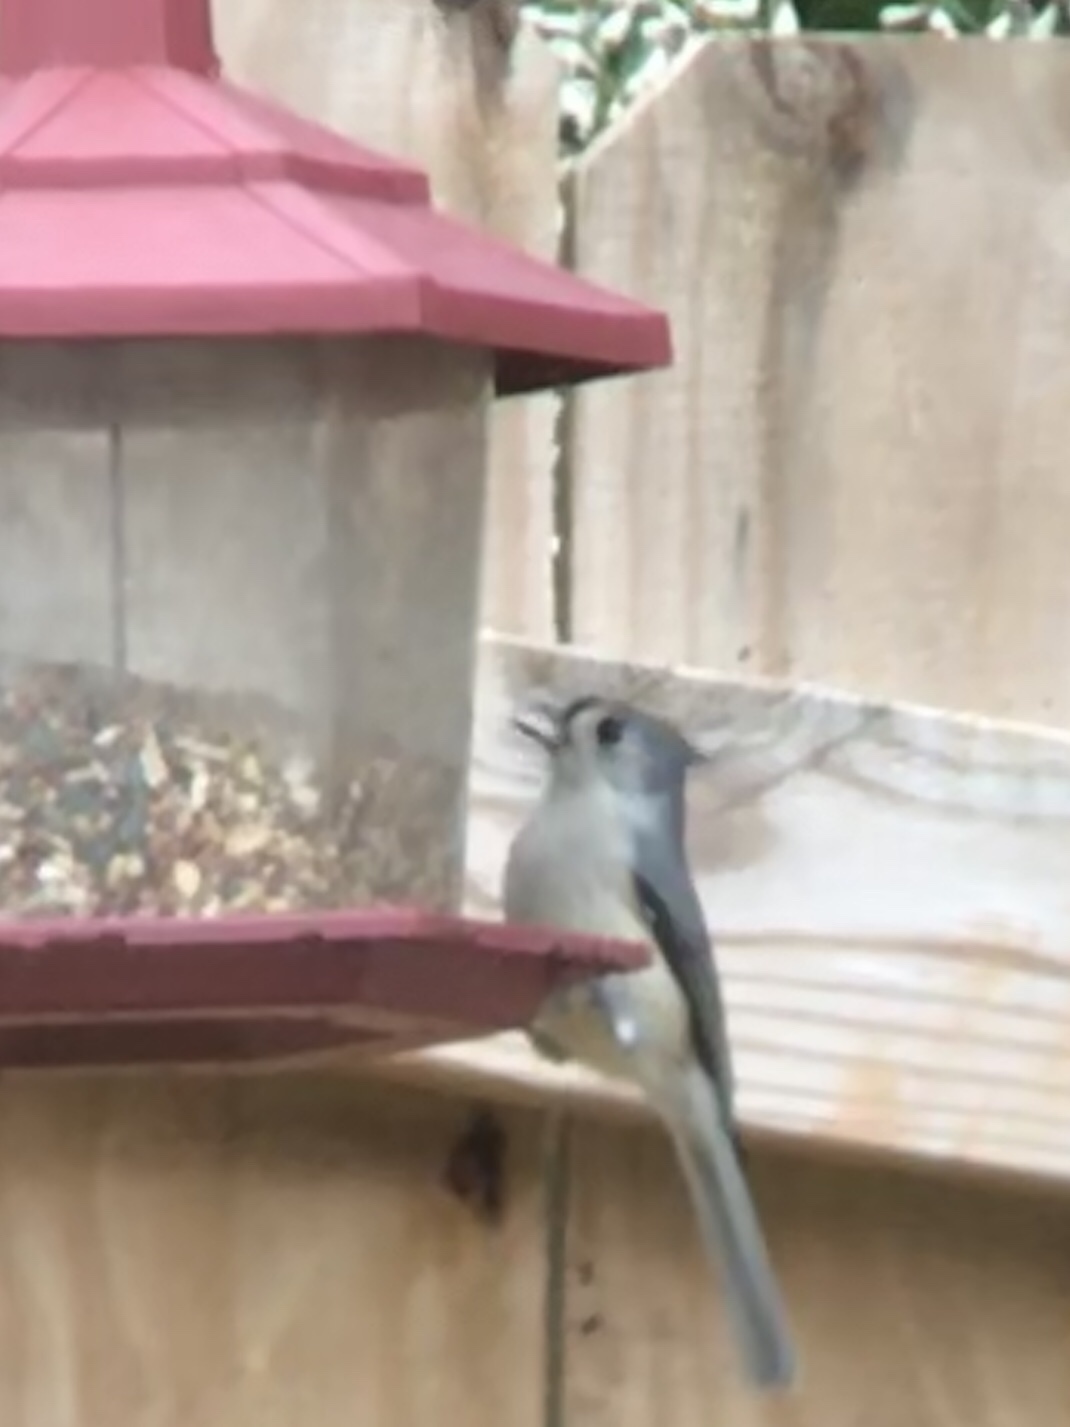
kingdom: Animalia
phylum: Chordata
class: Aves
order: Passeriformes
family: Paridae
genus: Baeolophus
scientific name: Baeolophus bicolor
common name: Tufted titmouse
